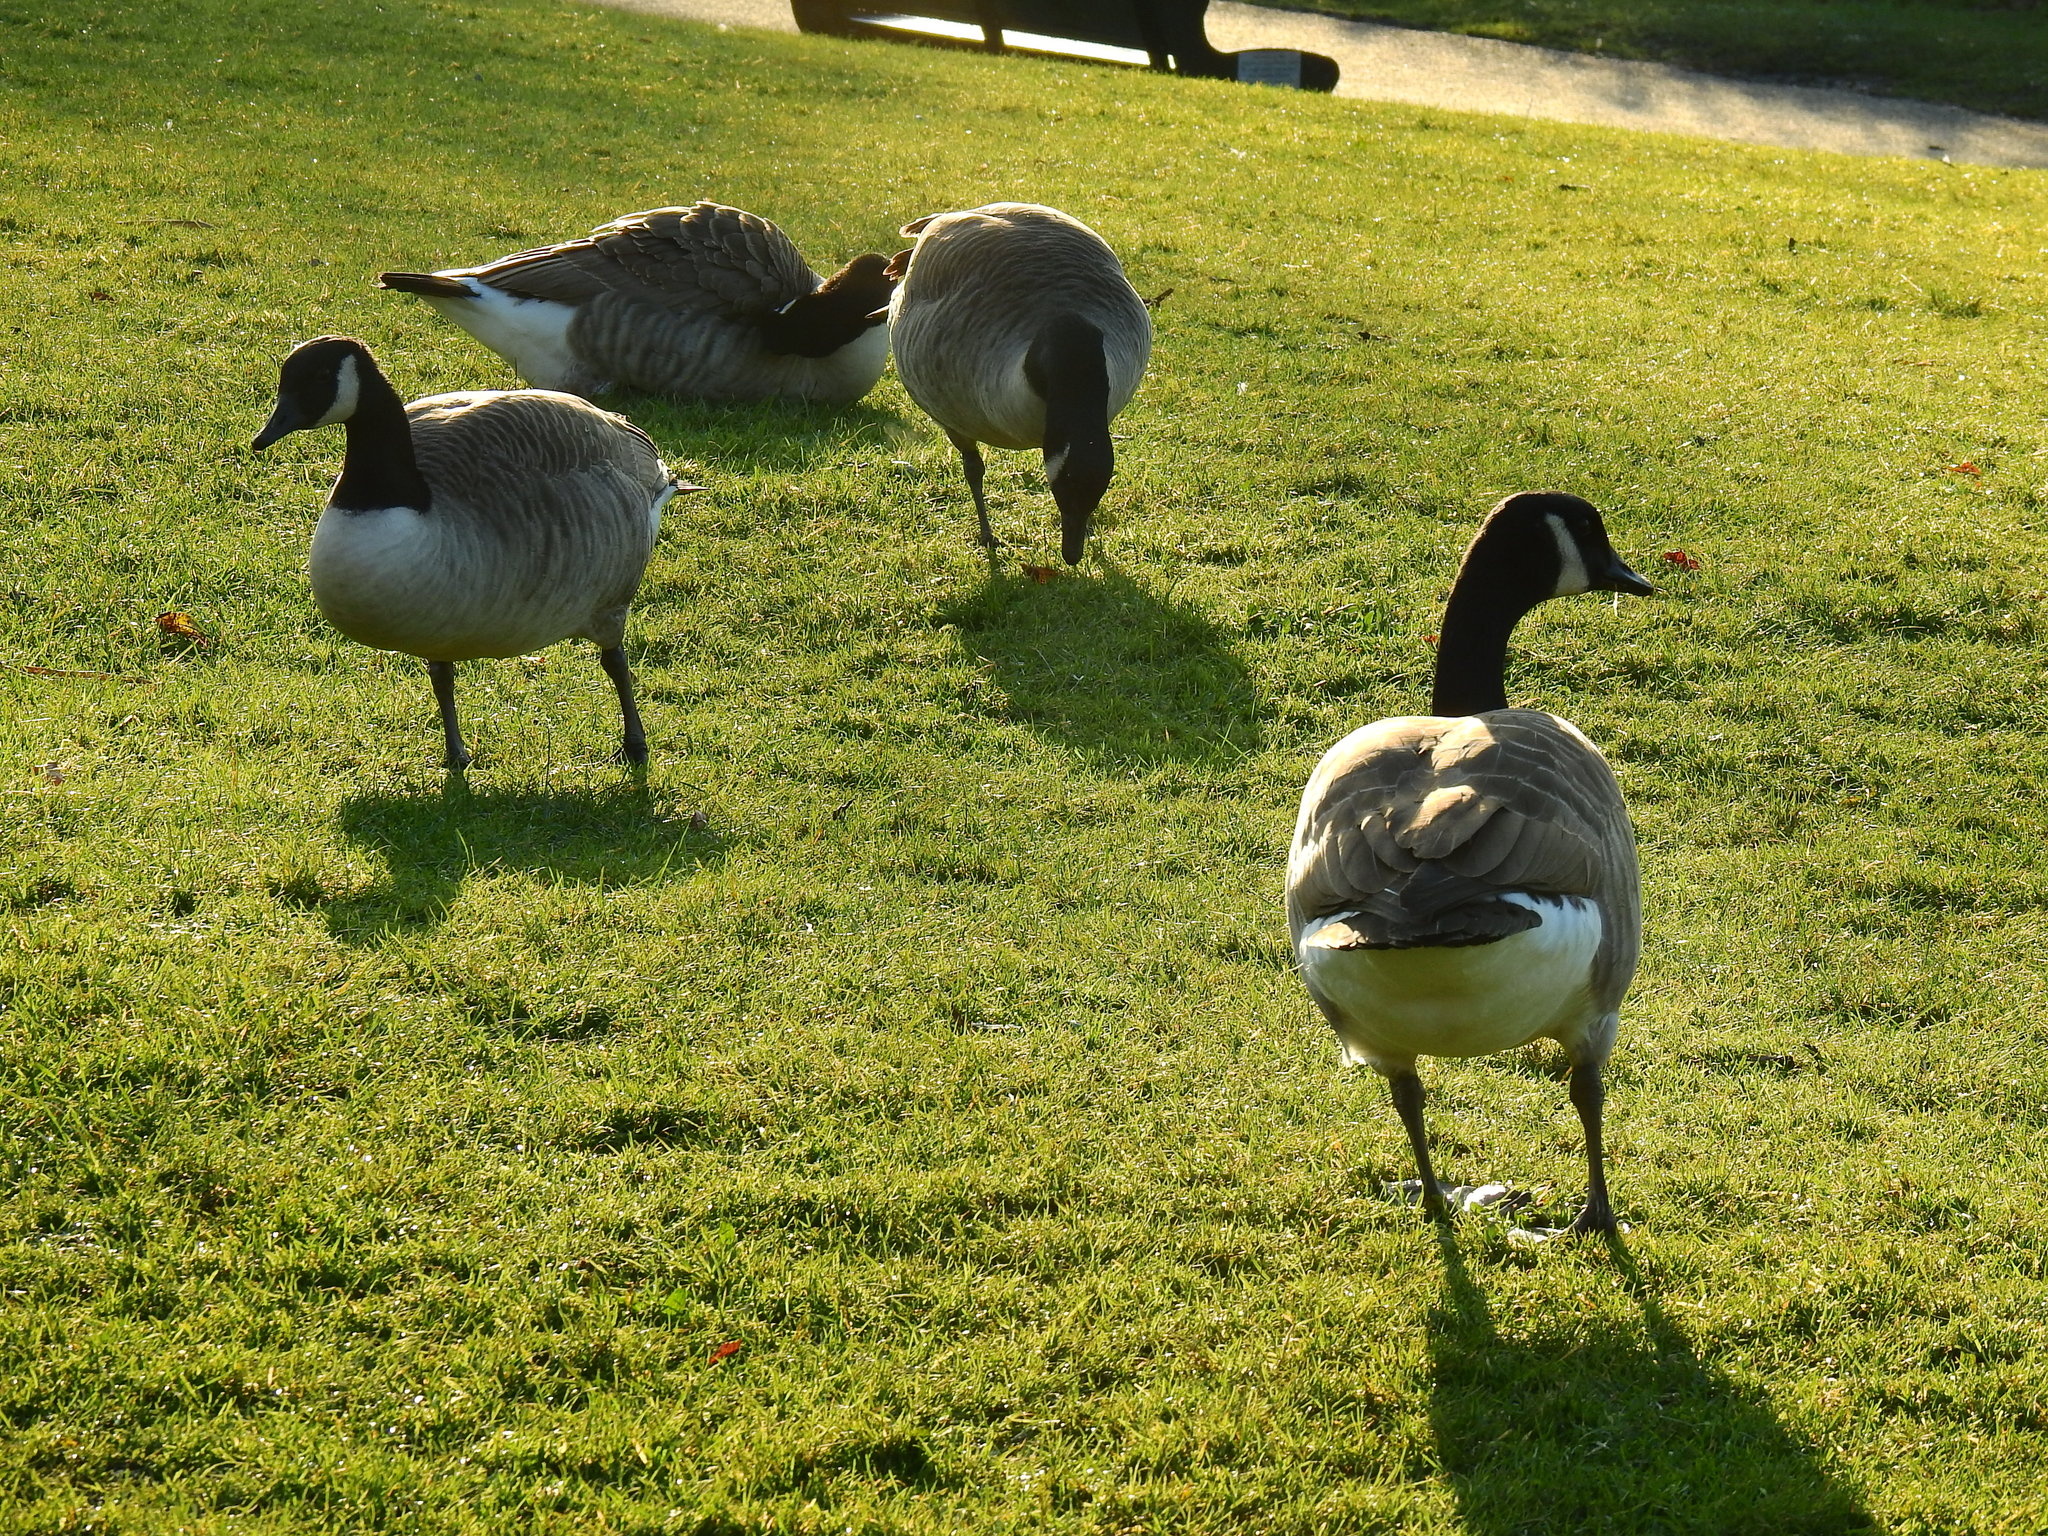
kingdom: Animalia
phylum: Chordata
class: Aves
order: Anseriformes
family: Anatidae
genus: Branta
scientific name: Branta canadensis
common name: Canada goose
